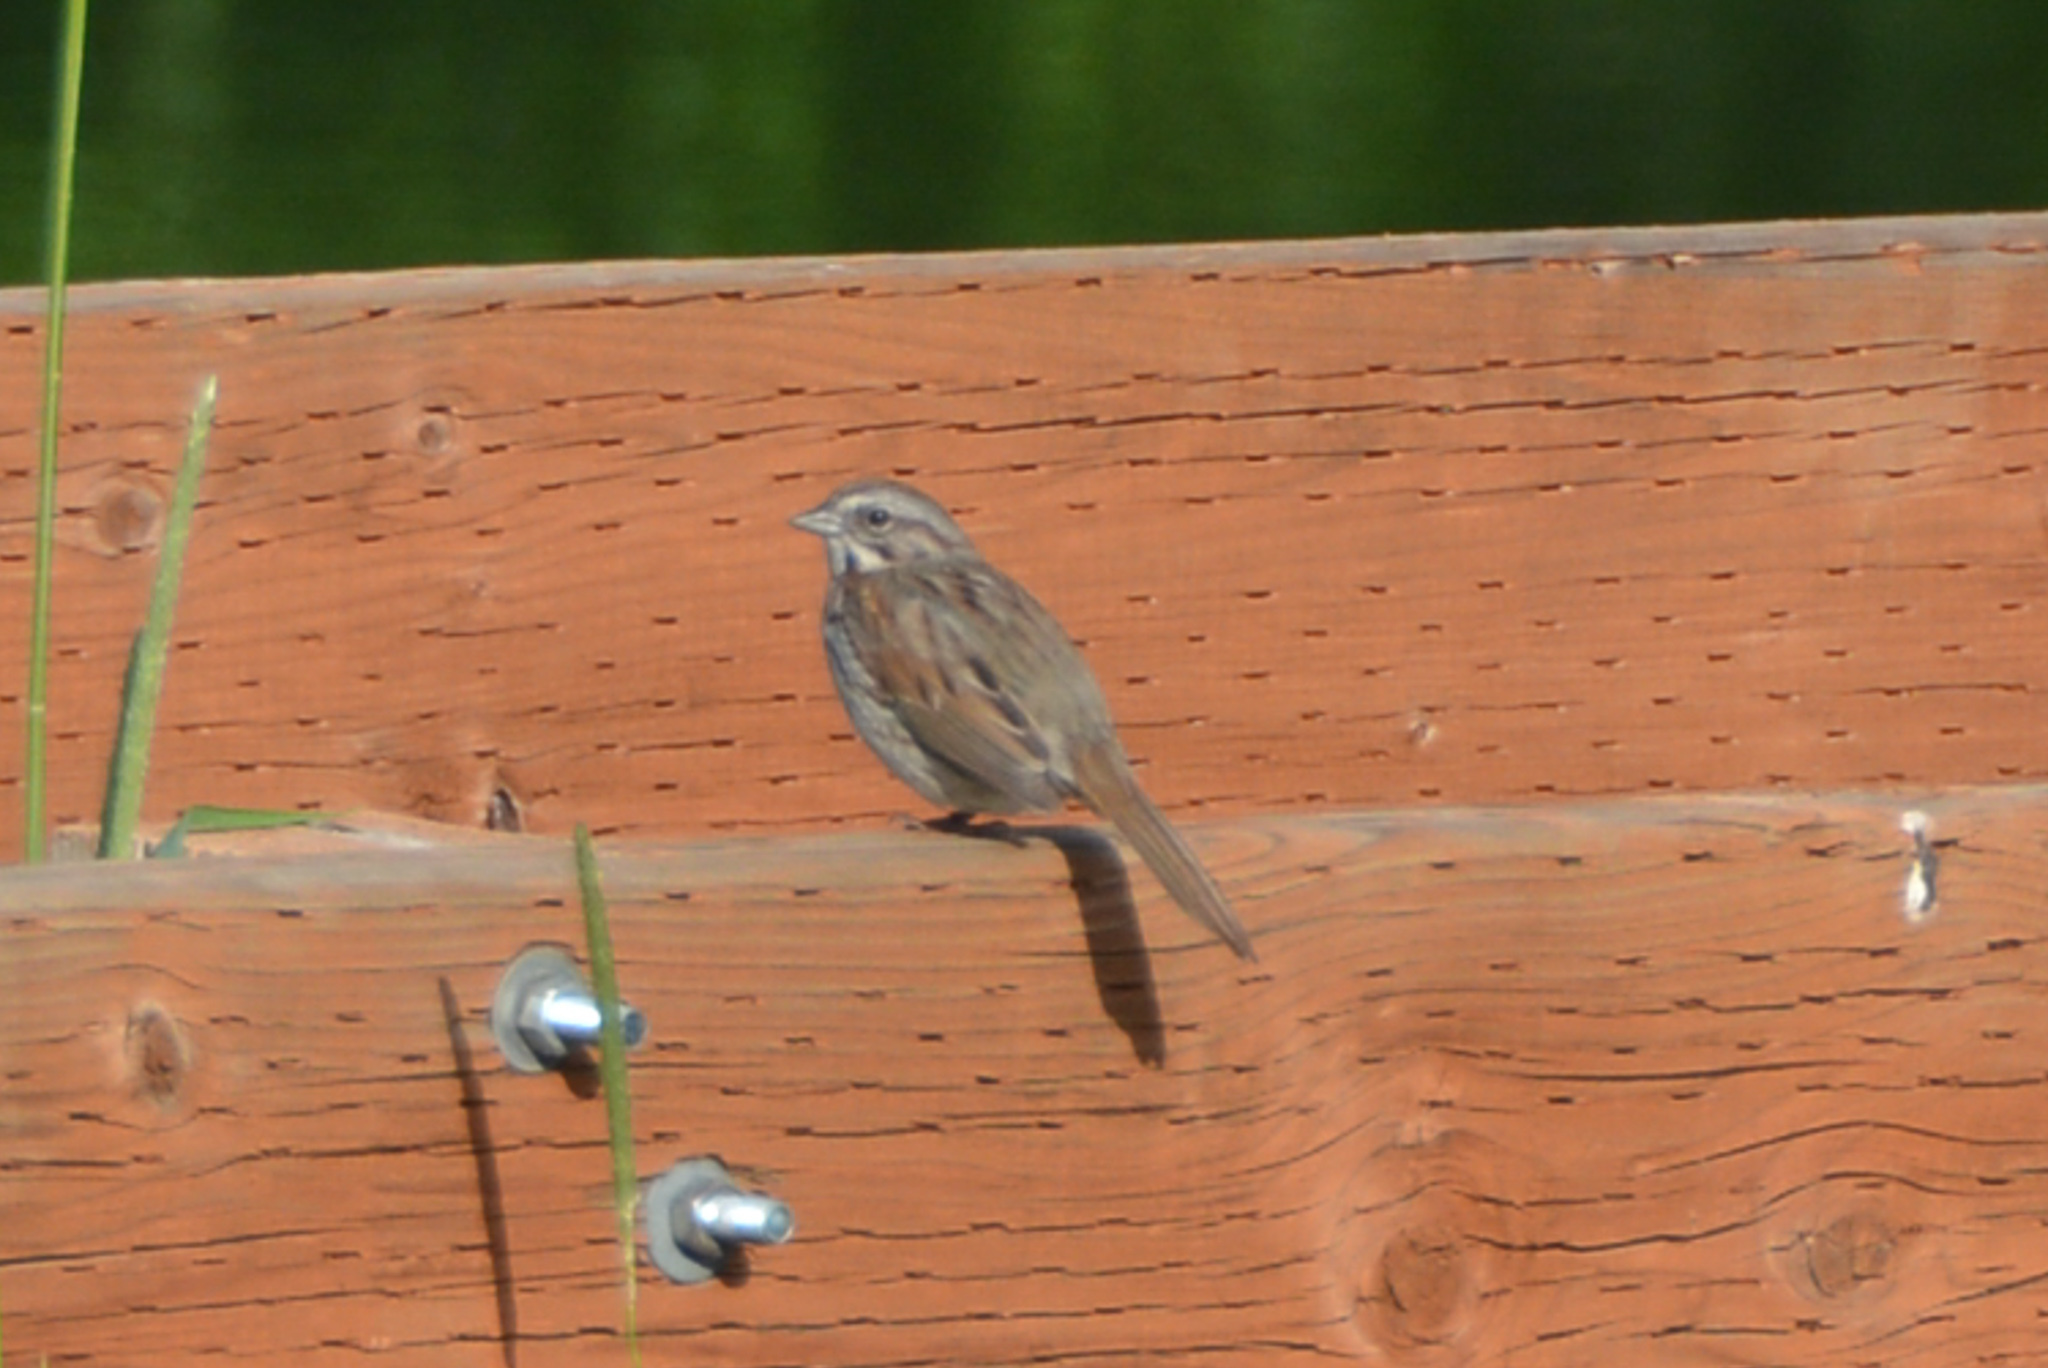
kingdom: Animalia
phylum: Chordata
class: Aves
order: Passeriformes
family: Passerellidae
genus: Melospiza
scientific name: Melospiza melodia
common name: Song sparrow
